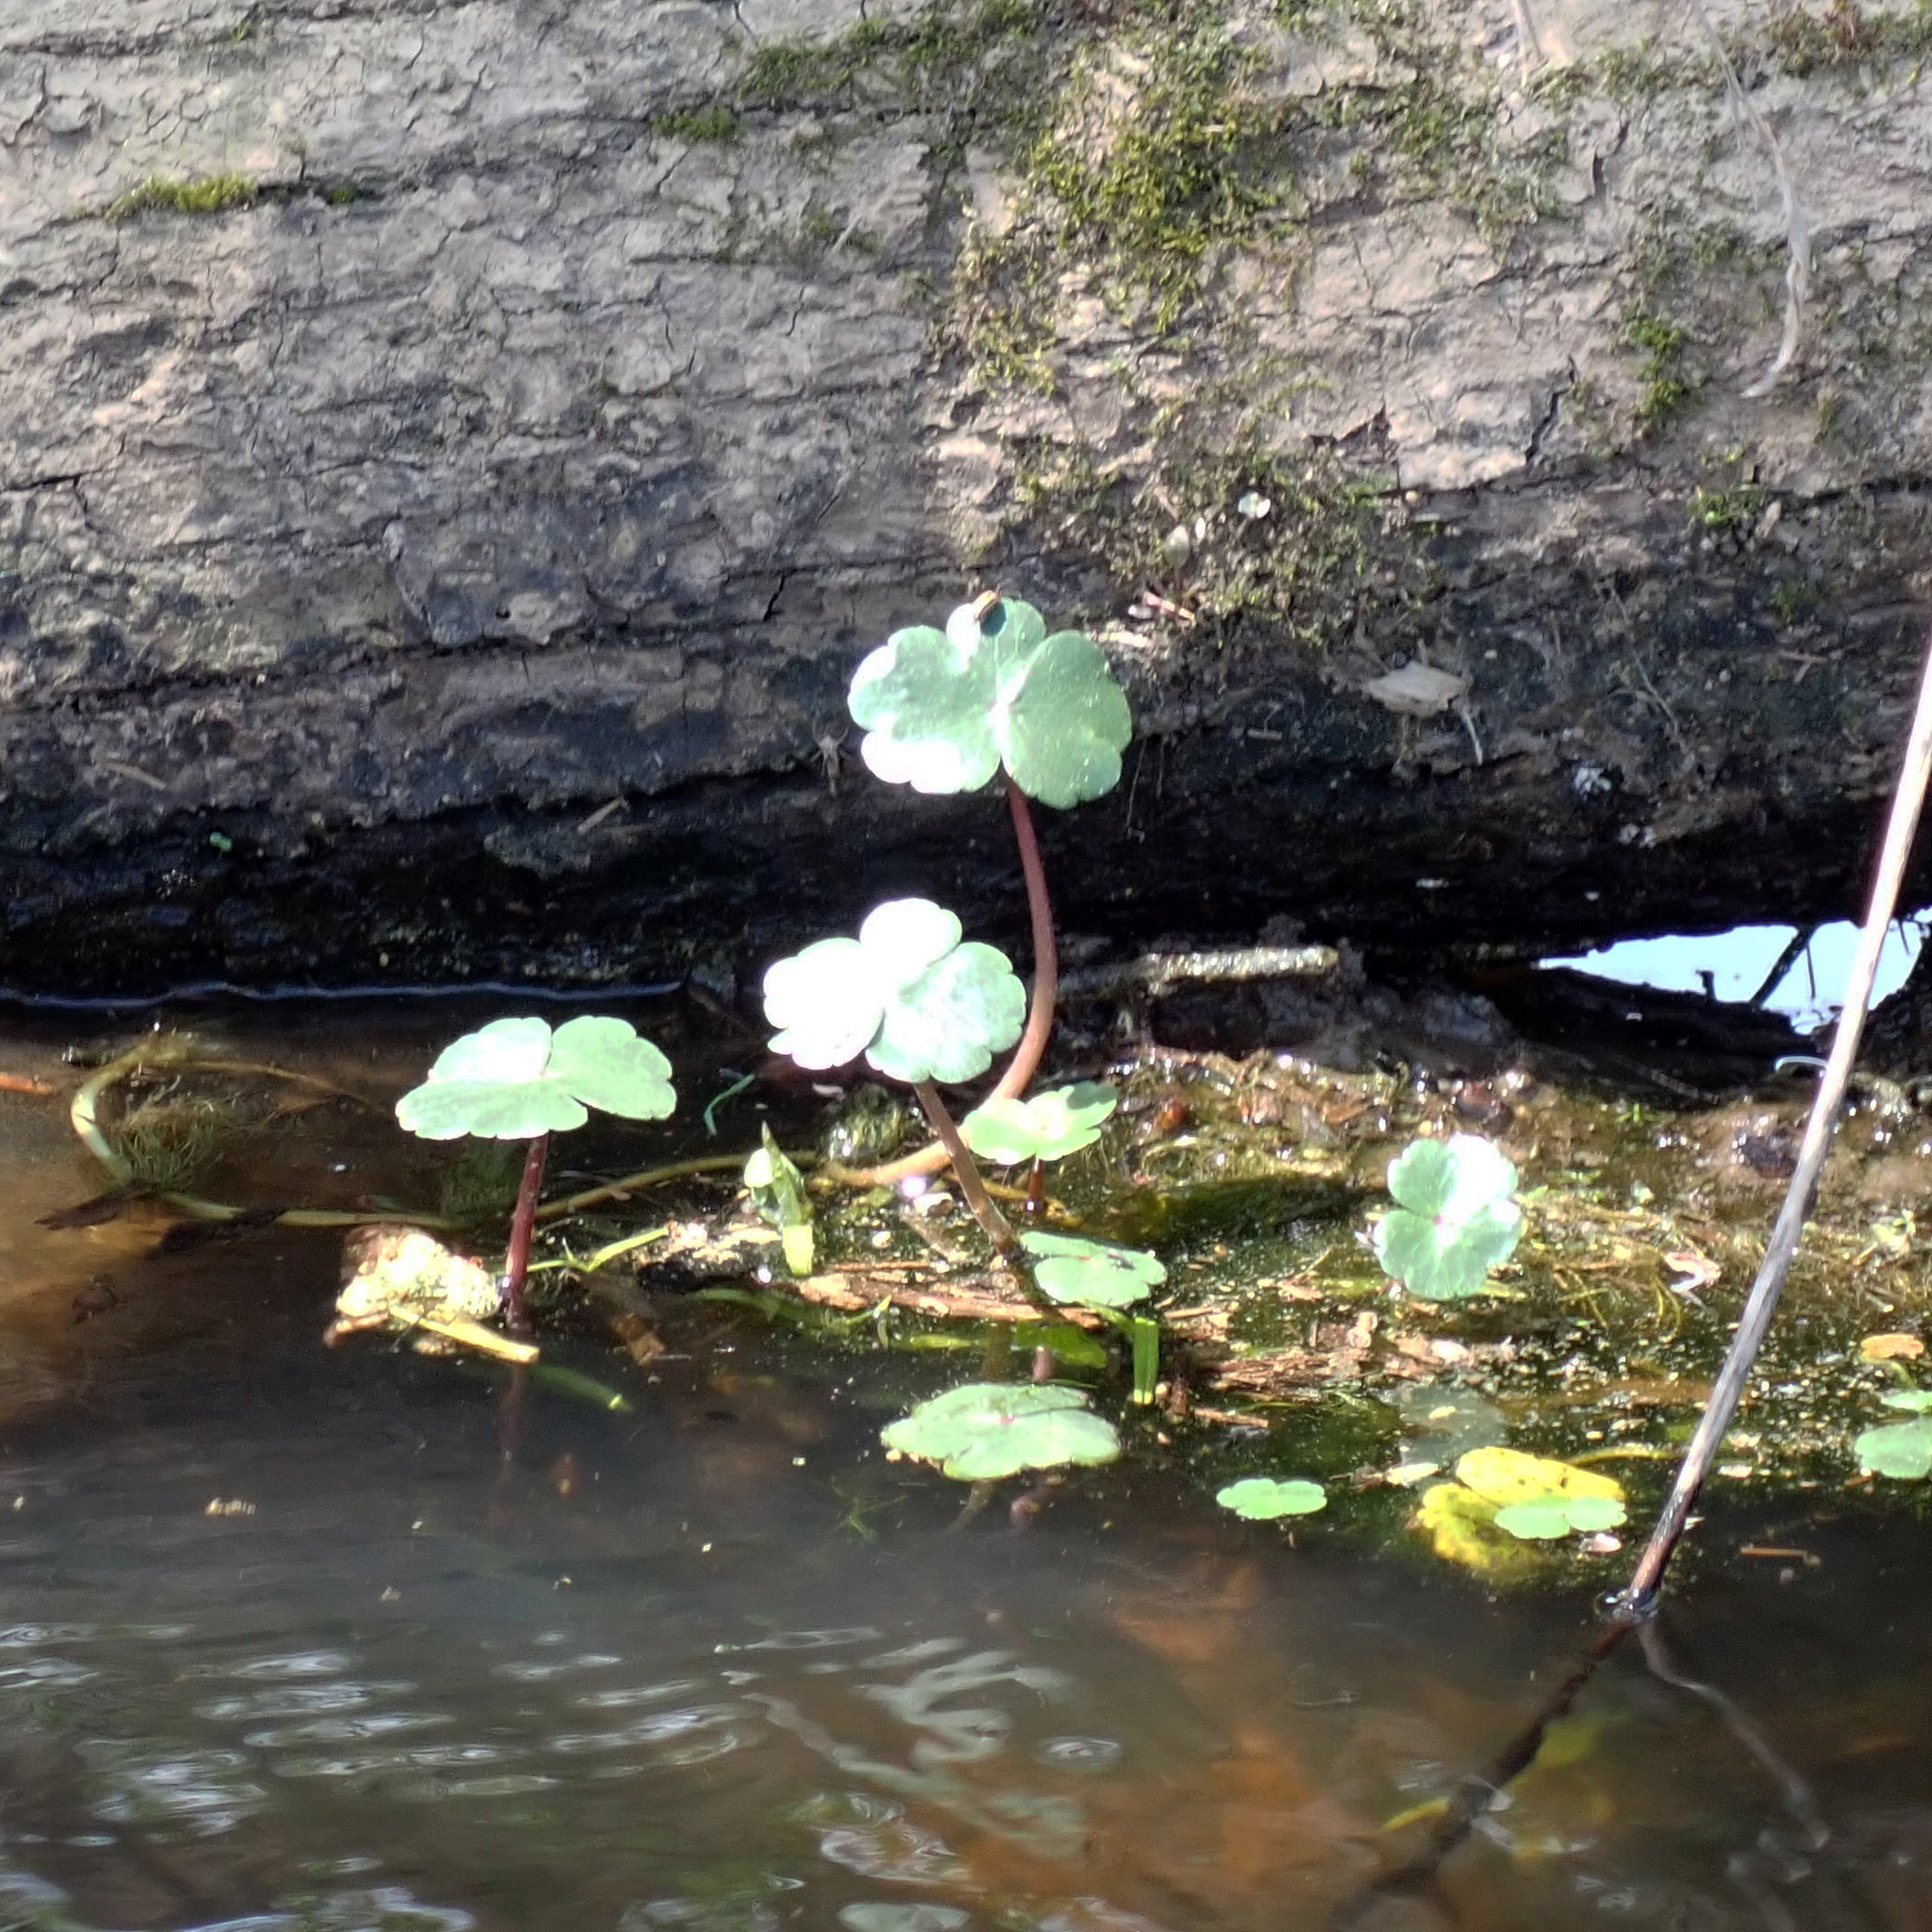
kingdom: Plantae
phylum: Tracheophyta
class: Magnoliopsida
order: Apiales
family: Araliaceae
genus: Hydrocotyle
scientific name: Hydrocotyle ranunculoides
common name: Floating pennywort
